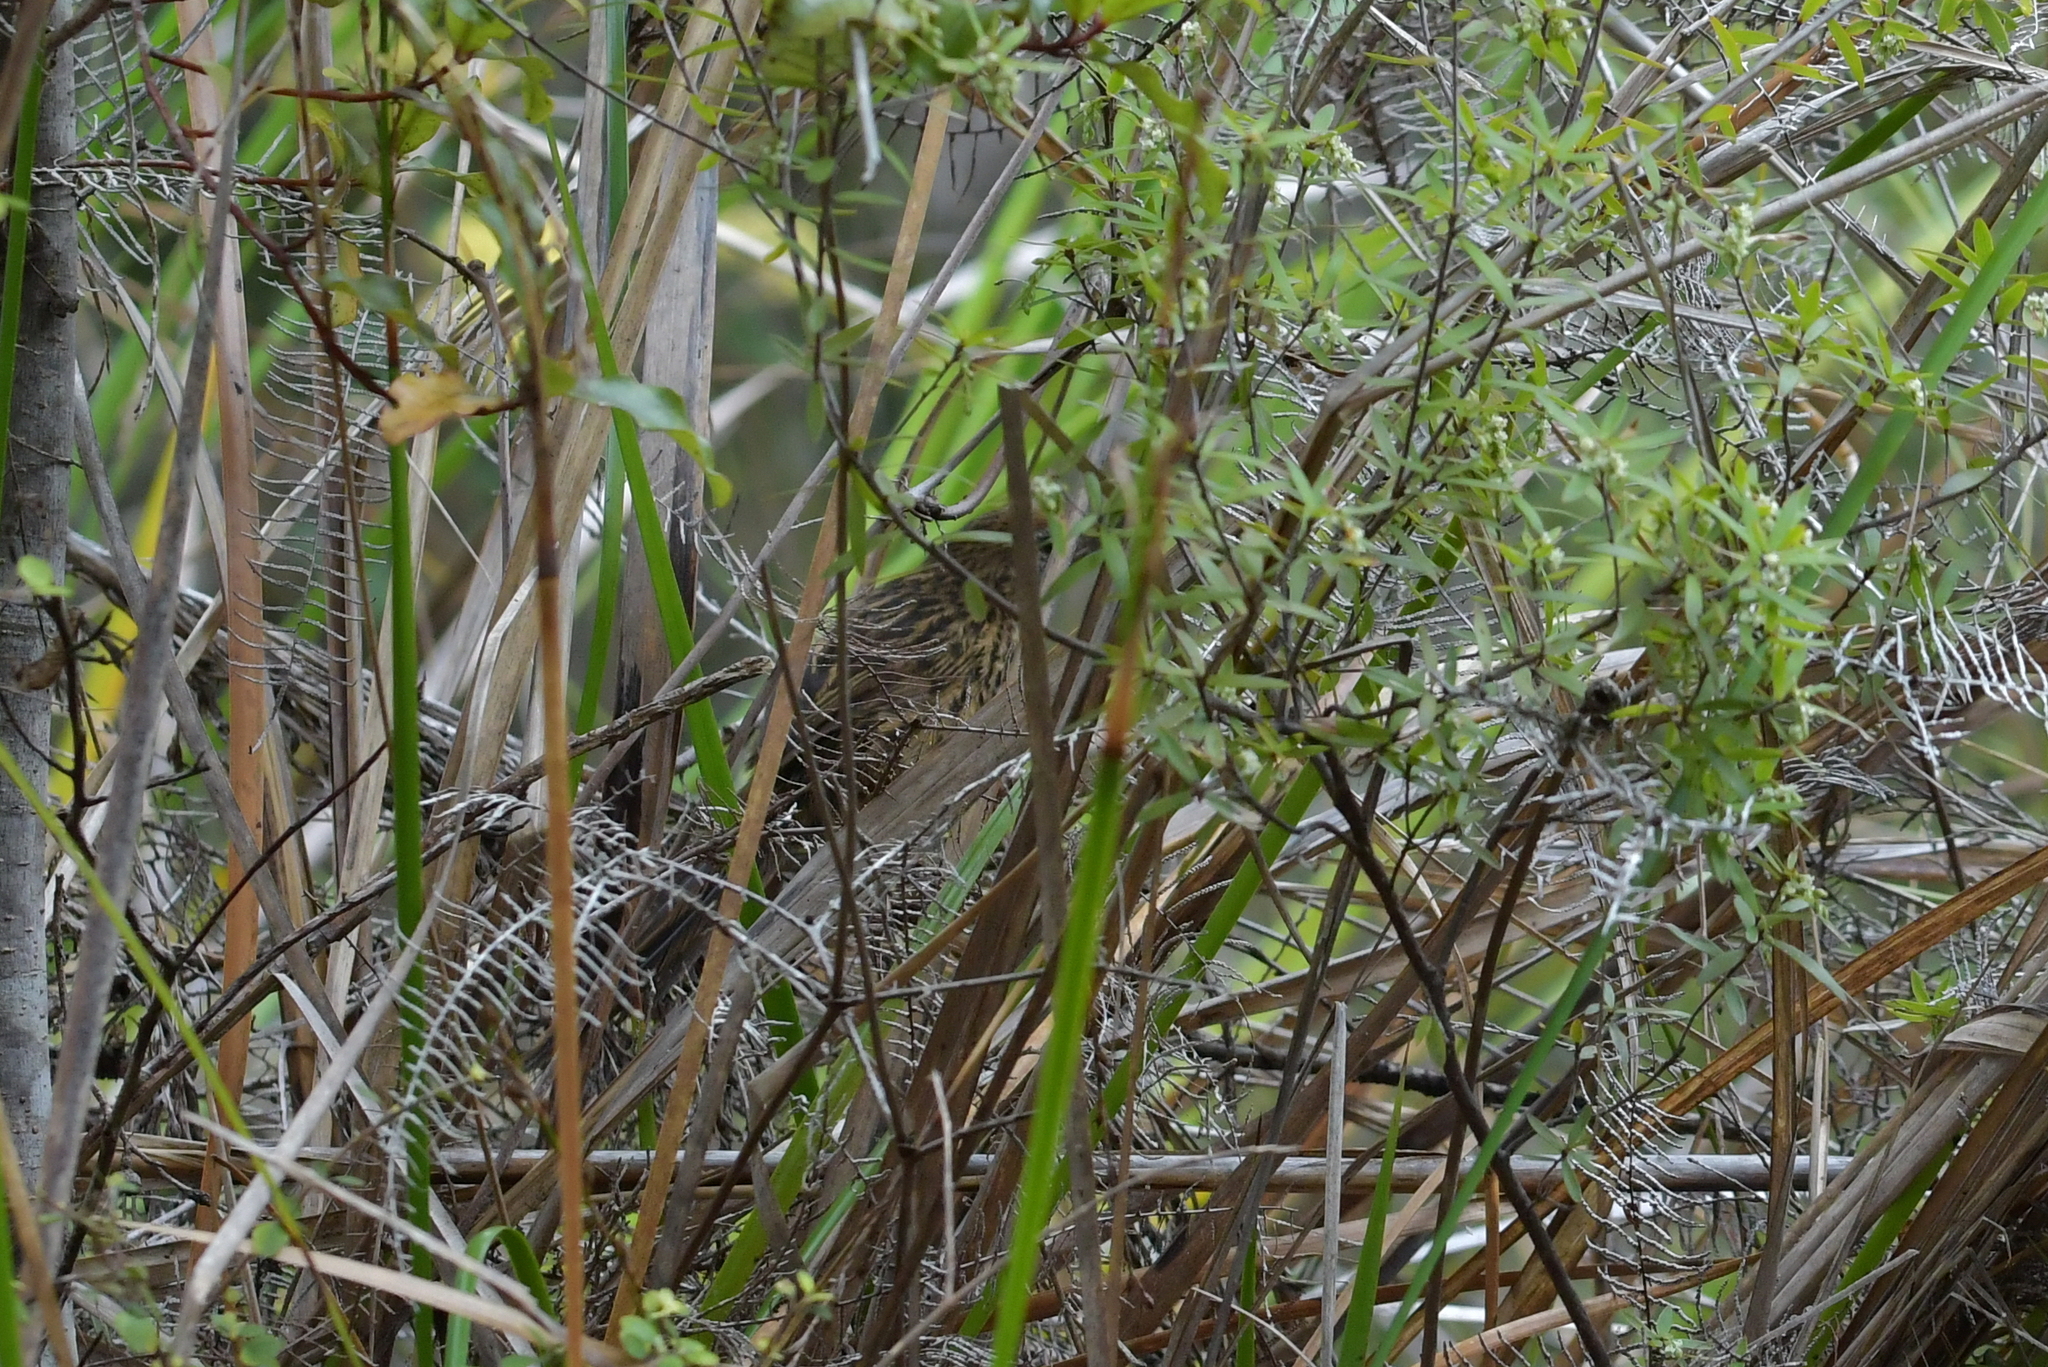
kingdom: Animalia
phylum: Chordata
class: Aves
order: Passeriformes
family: Locustellidae
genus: Megalurus
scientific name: Megalurus punctatus
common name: New zealand fernbird
